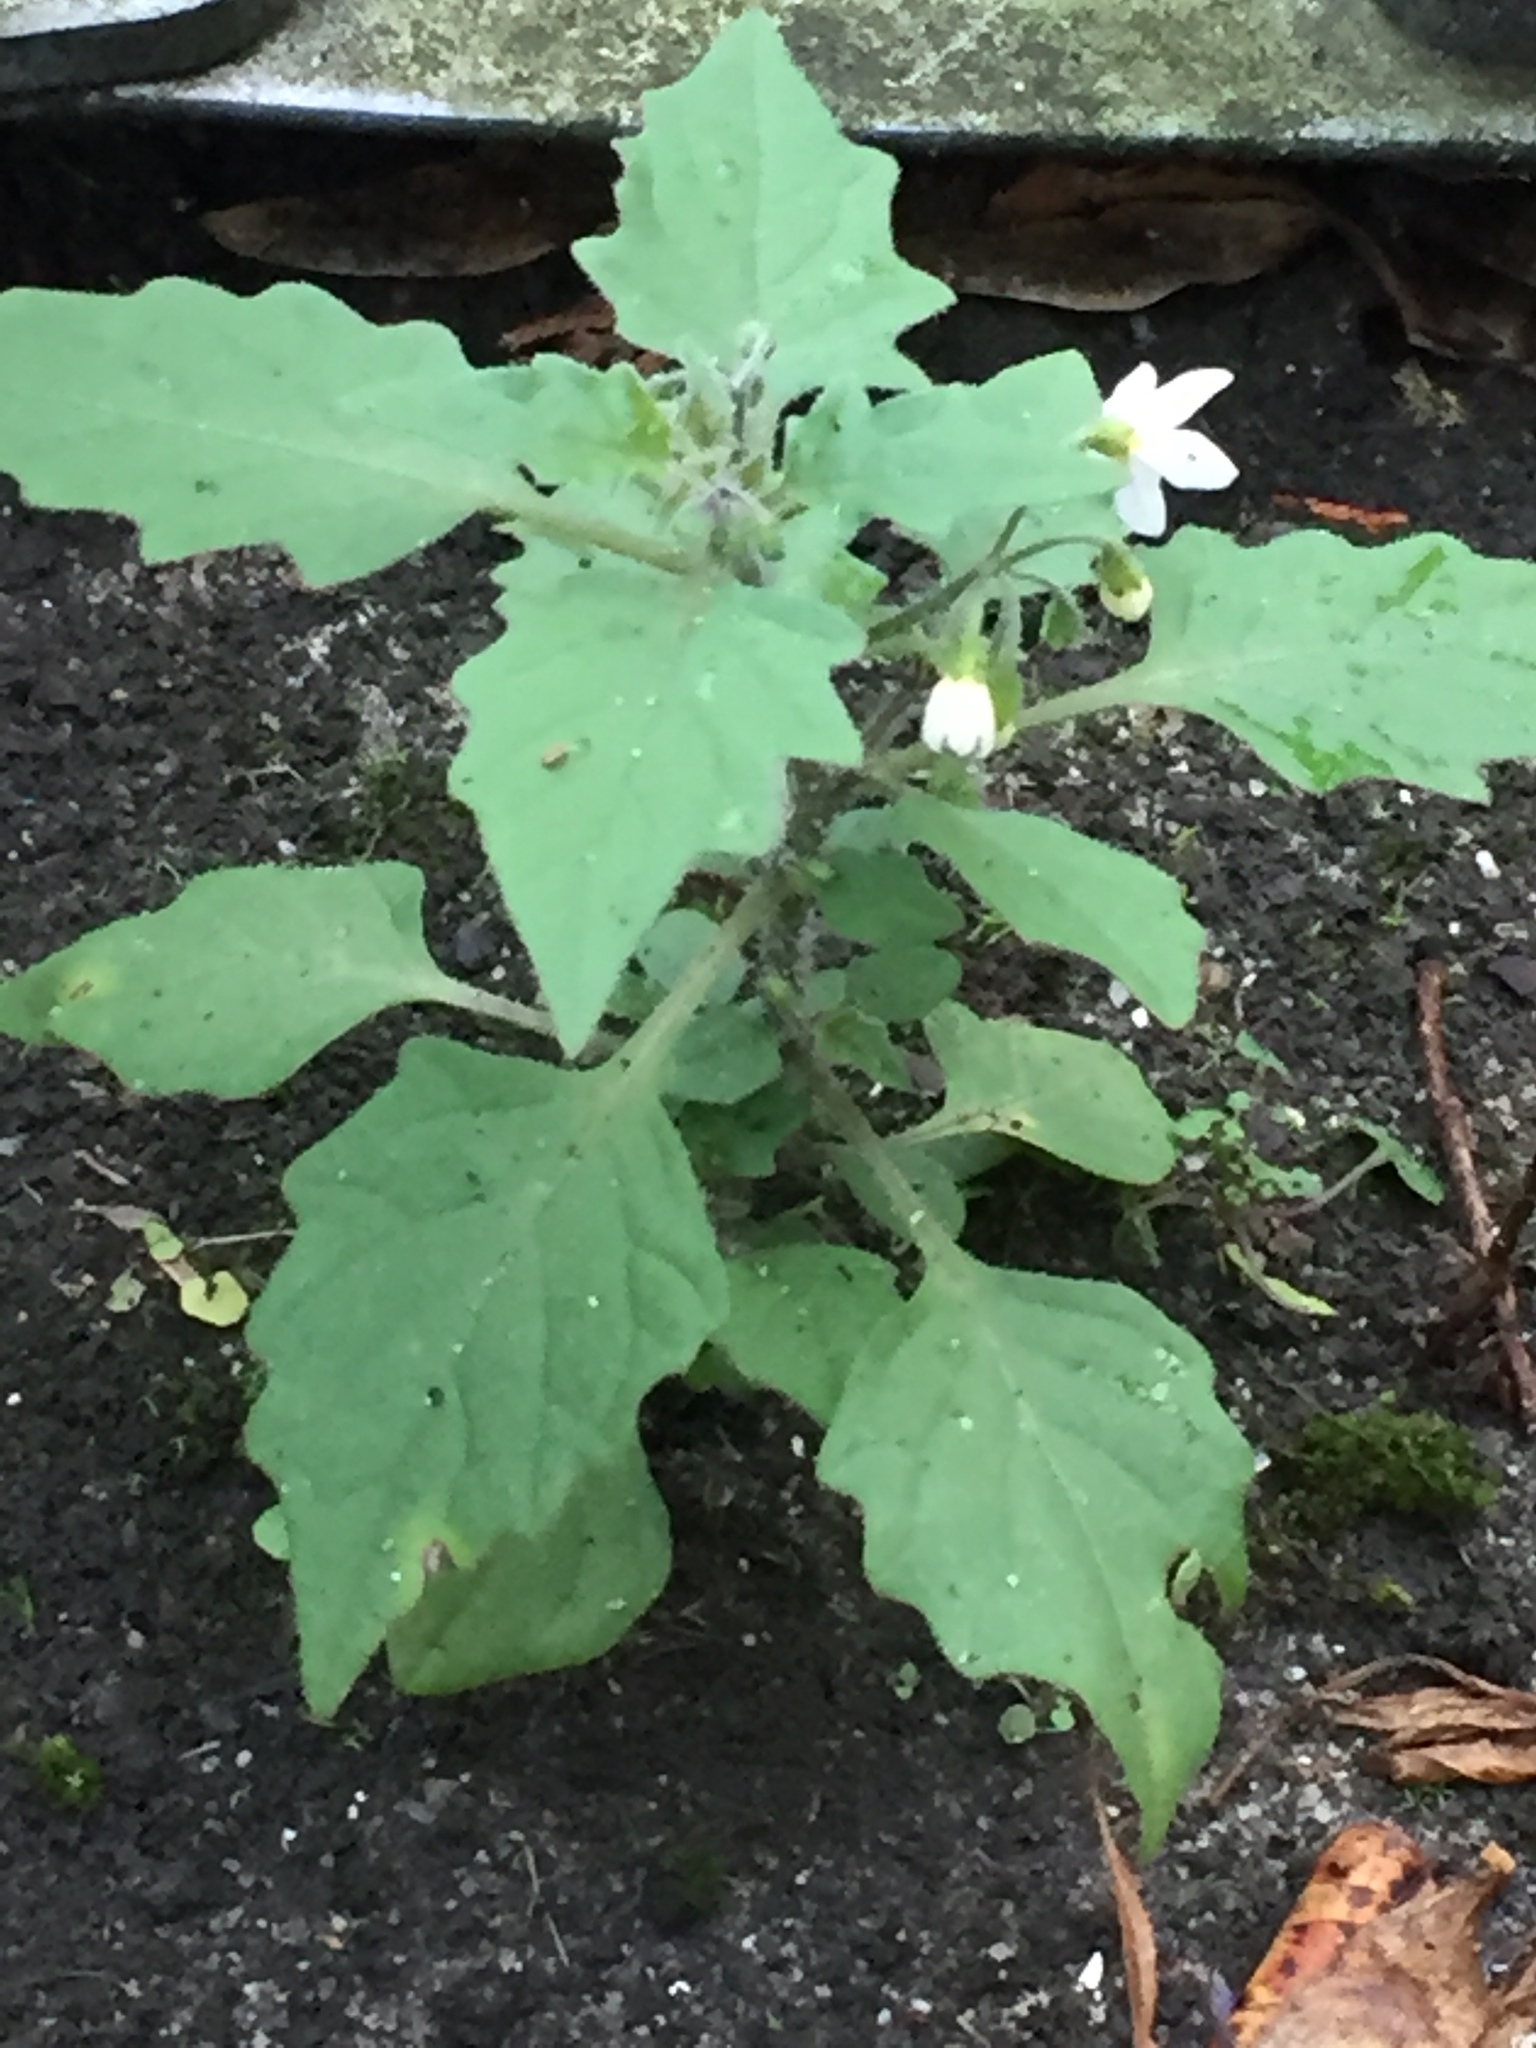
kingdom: Plantae
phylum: Tracheophyta
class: Magnoliopsida
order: Solanales
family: Solanaceae
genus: Solanum
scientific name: Solanum nigrum
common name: Black nightshade
